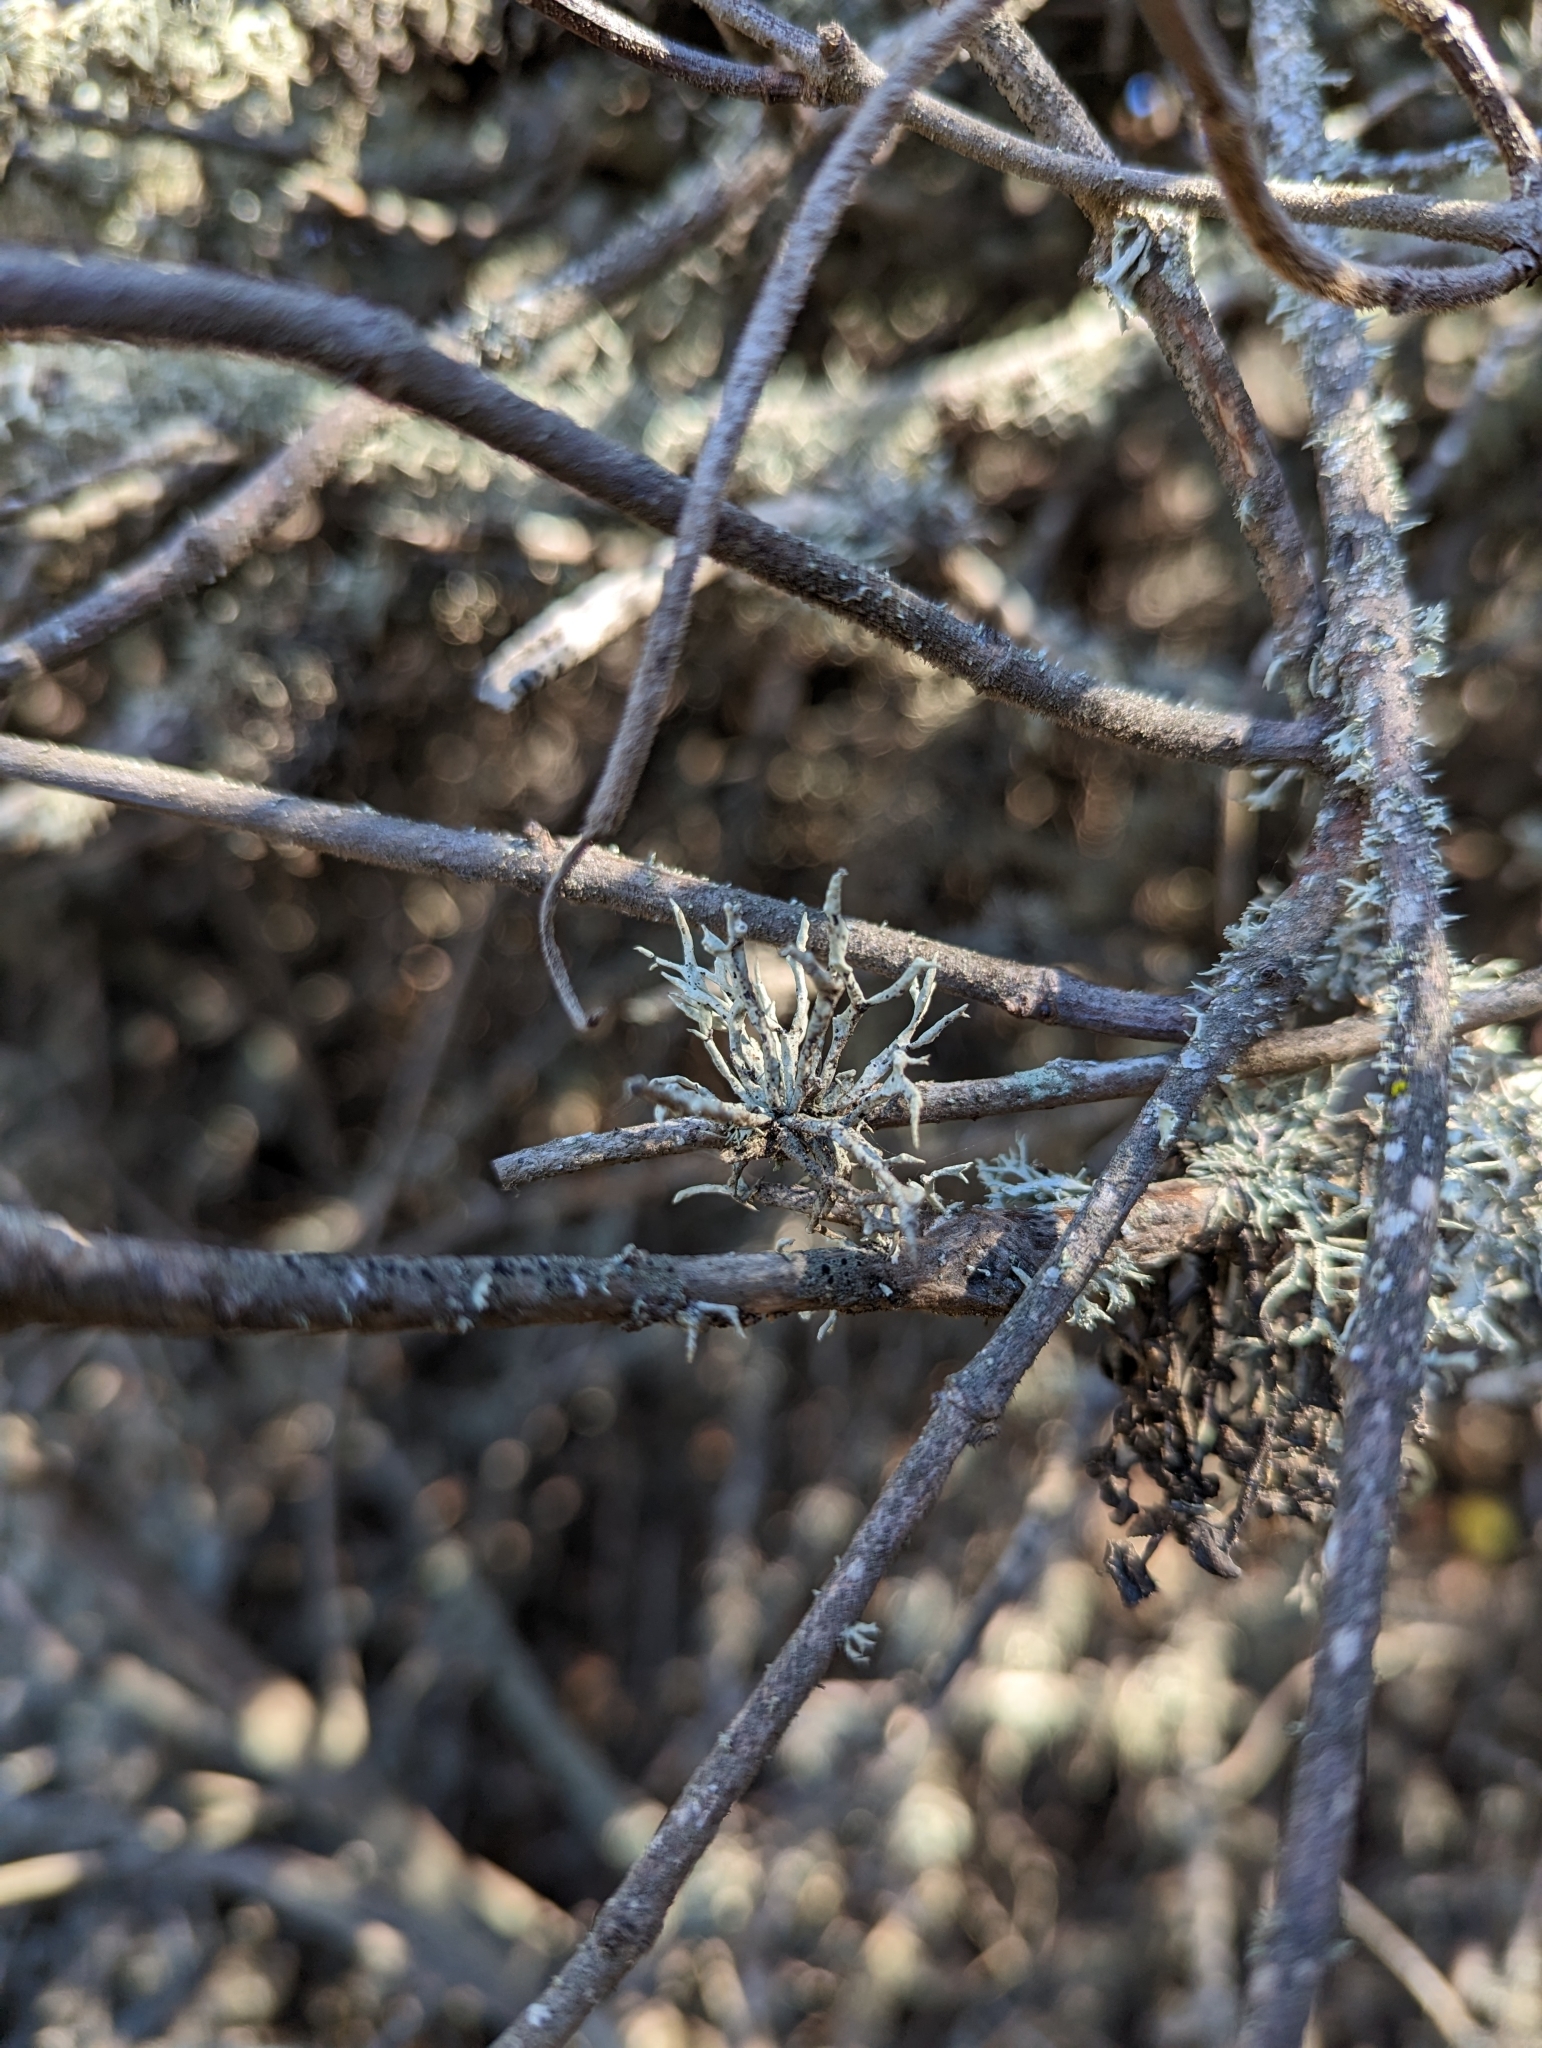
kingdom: Fungi
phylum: Ascomycota
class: Lecanoromycetes
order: Lecanorales
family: Ramalinaceae
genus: Niebla
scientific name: Niebla ceruchis
